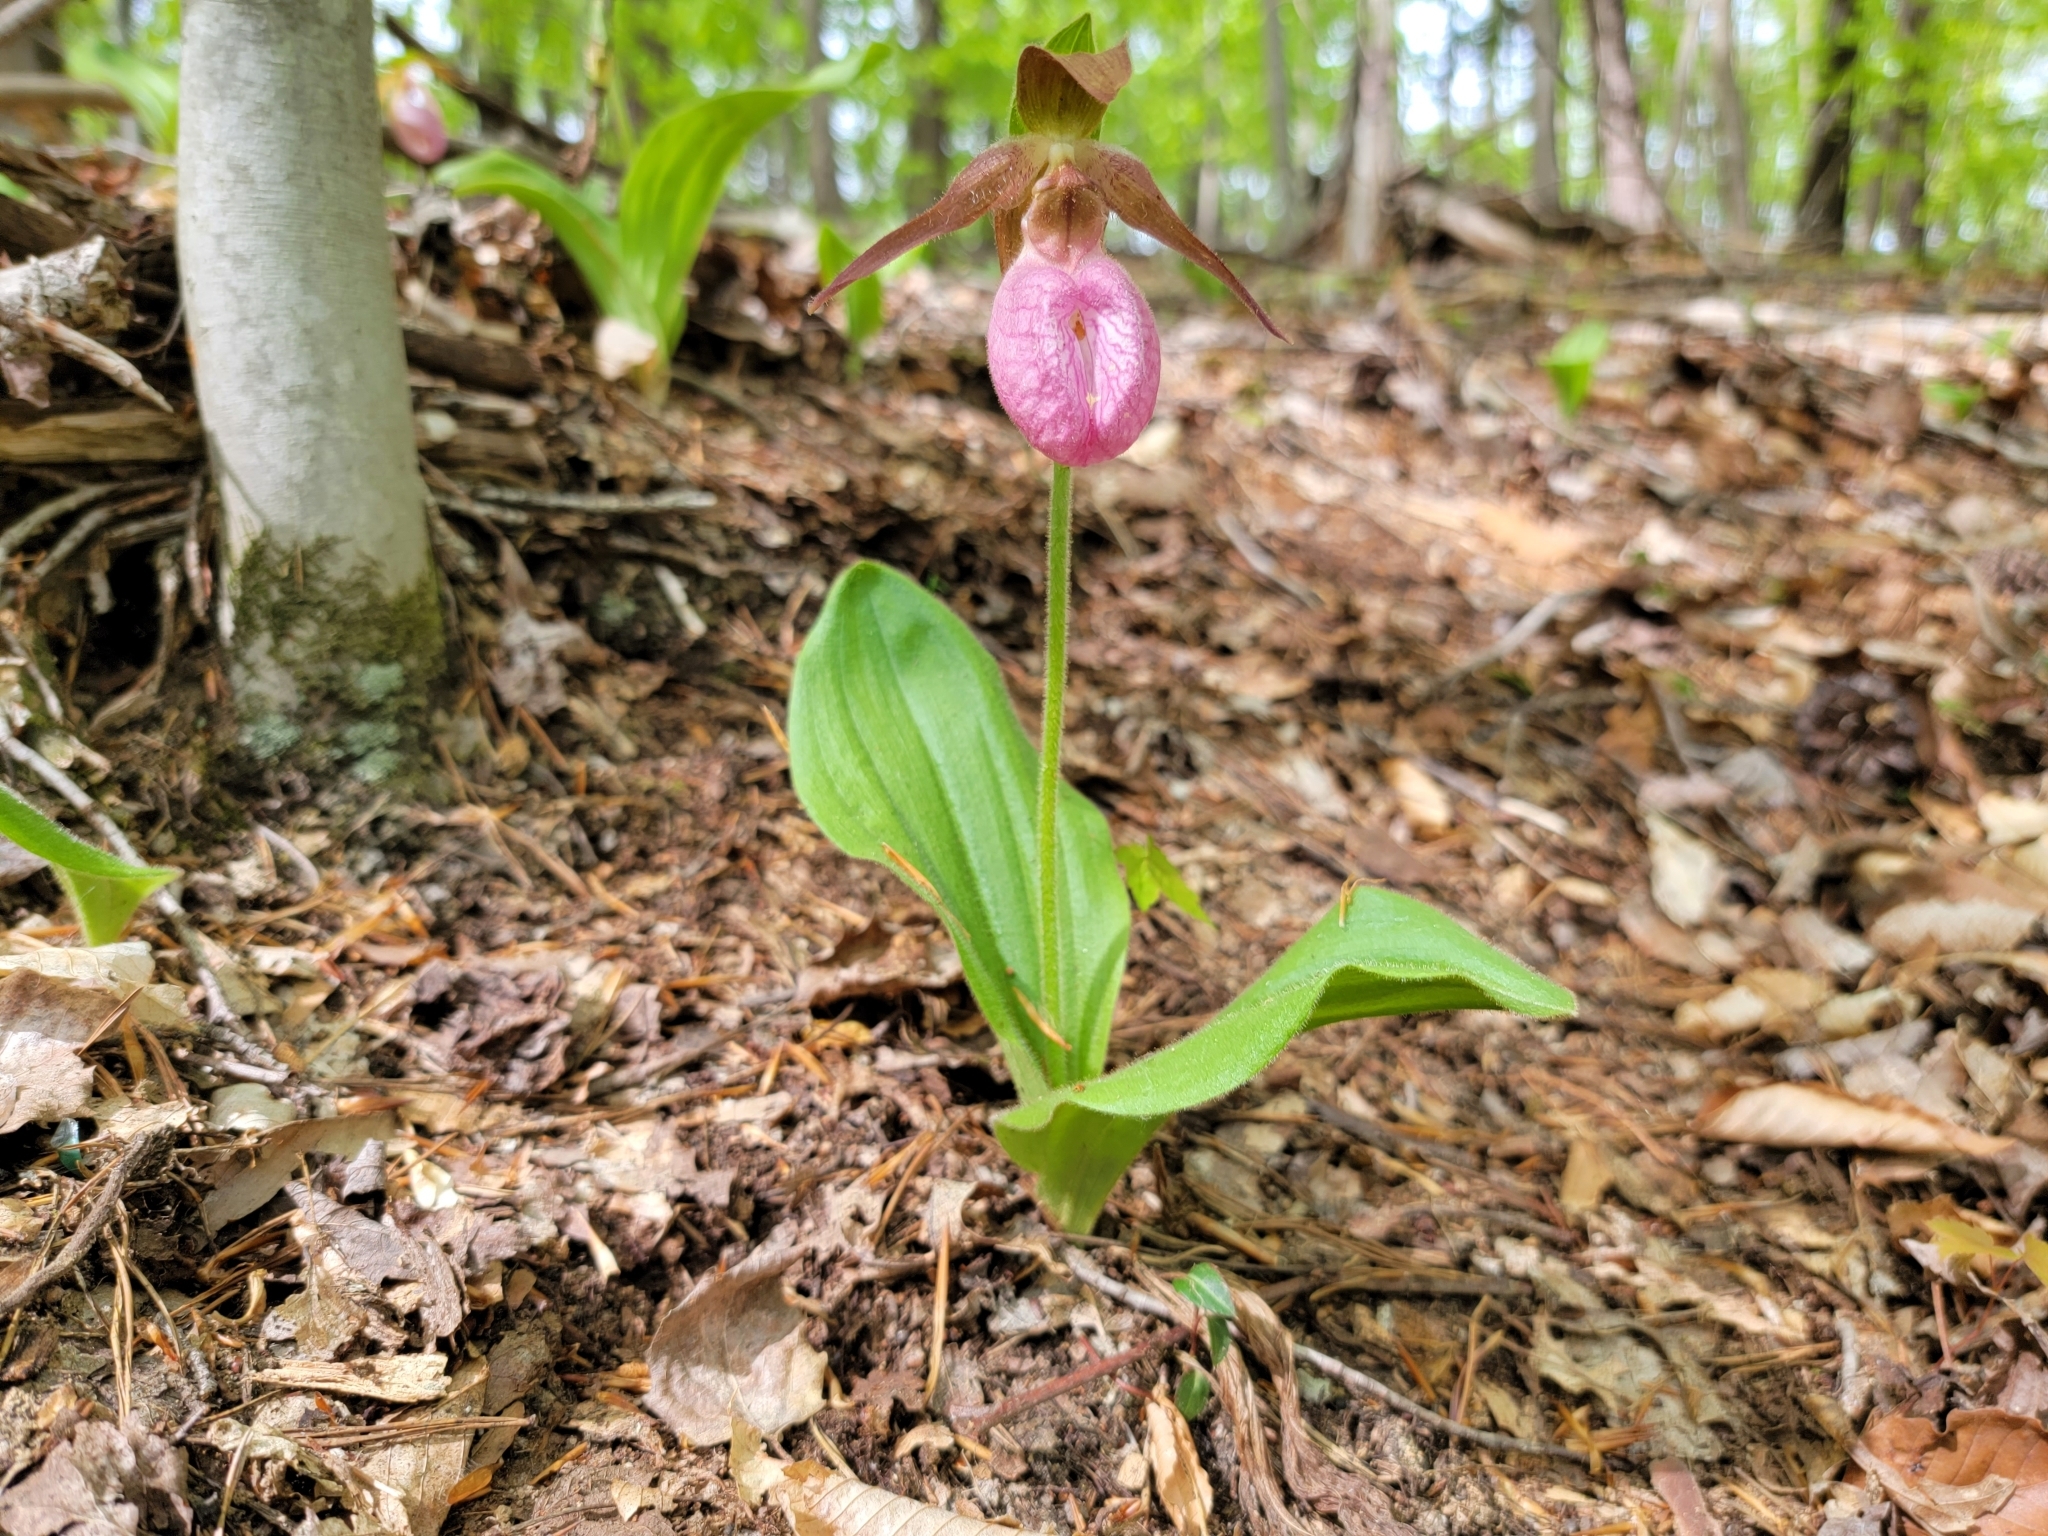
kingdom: Plantae
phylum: Tracheophyta
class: Liliopsida
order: Asparagales
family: Orchidaceae
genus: Cypripedium
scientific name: Cypripedium acaule
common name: Pink lady's-slipper
